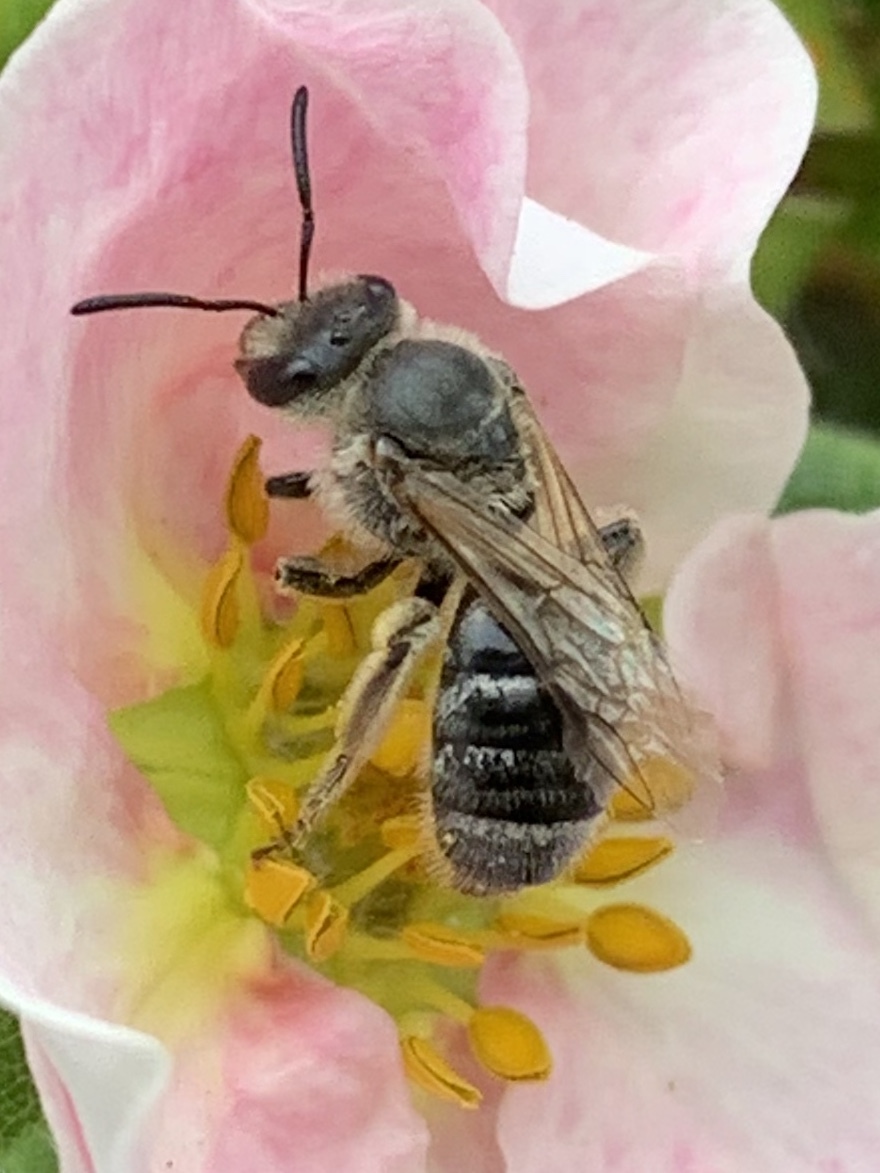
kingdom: Animalia
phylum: Arthropoda
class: Insecta
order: Hymenoptera
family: Halictidae
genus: Lasioglossum
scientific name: Lasioglossum sisymbrii
